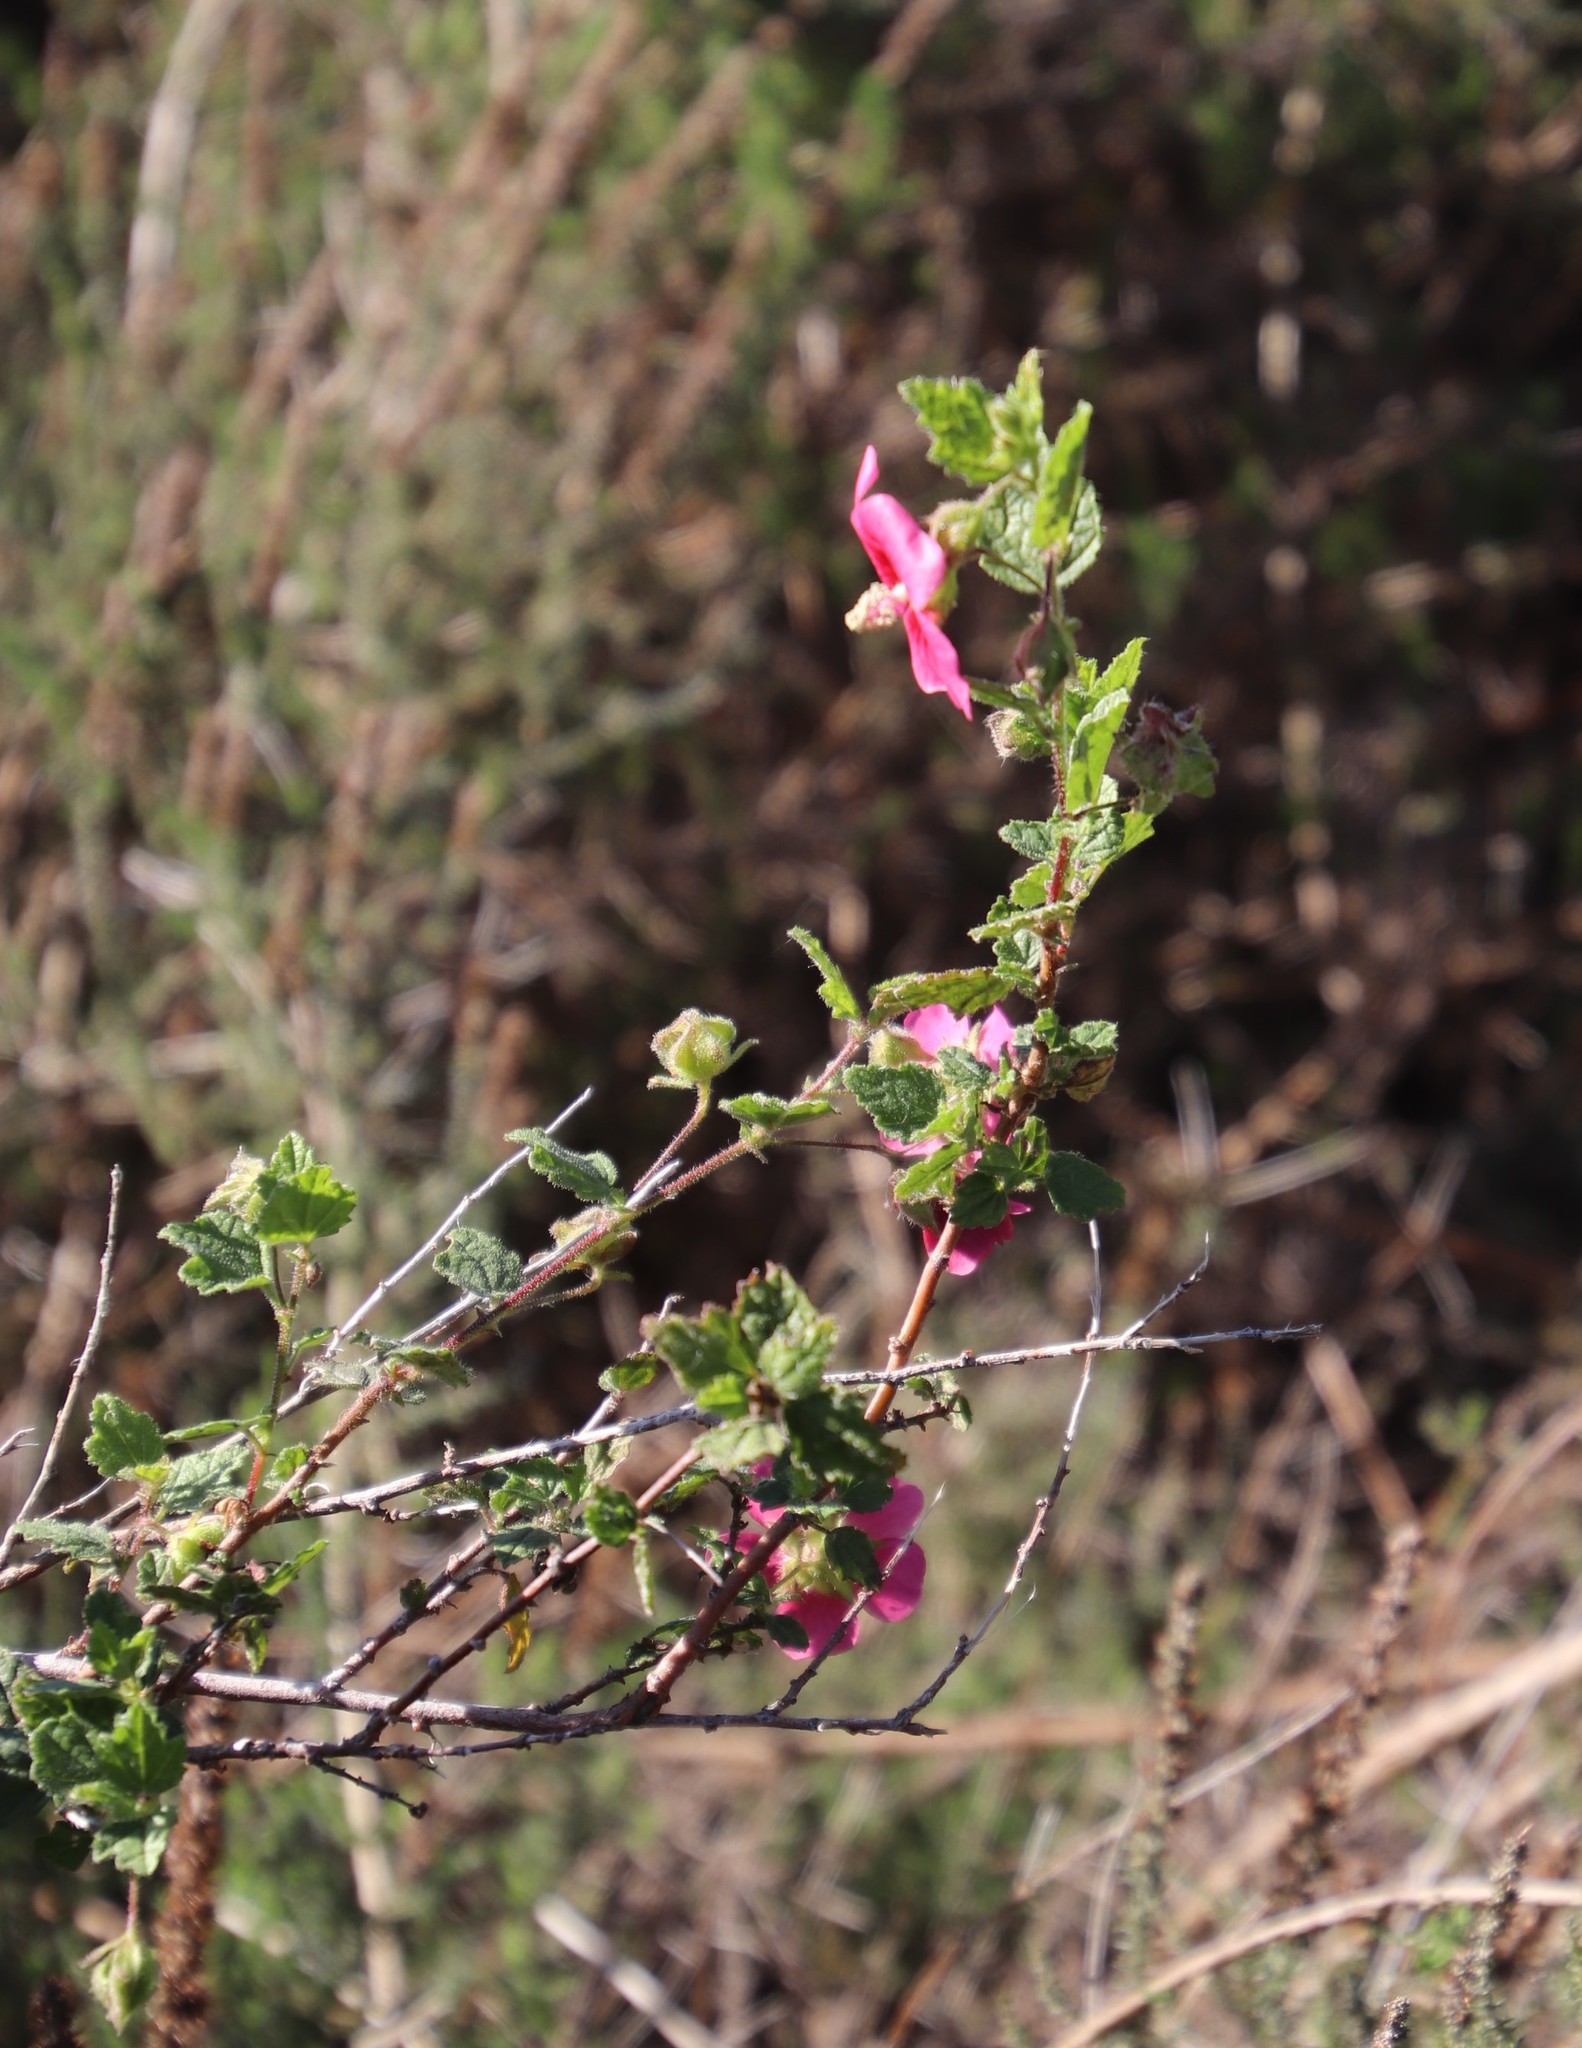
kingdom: Plantae
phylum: Tracheophyta
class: Magnoliopsida
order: Malvales
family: Malvaceae
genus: Anisodontea
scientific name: Anisodontea scabrosa
